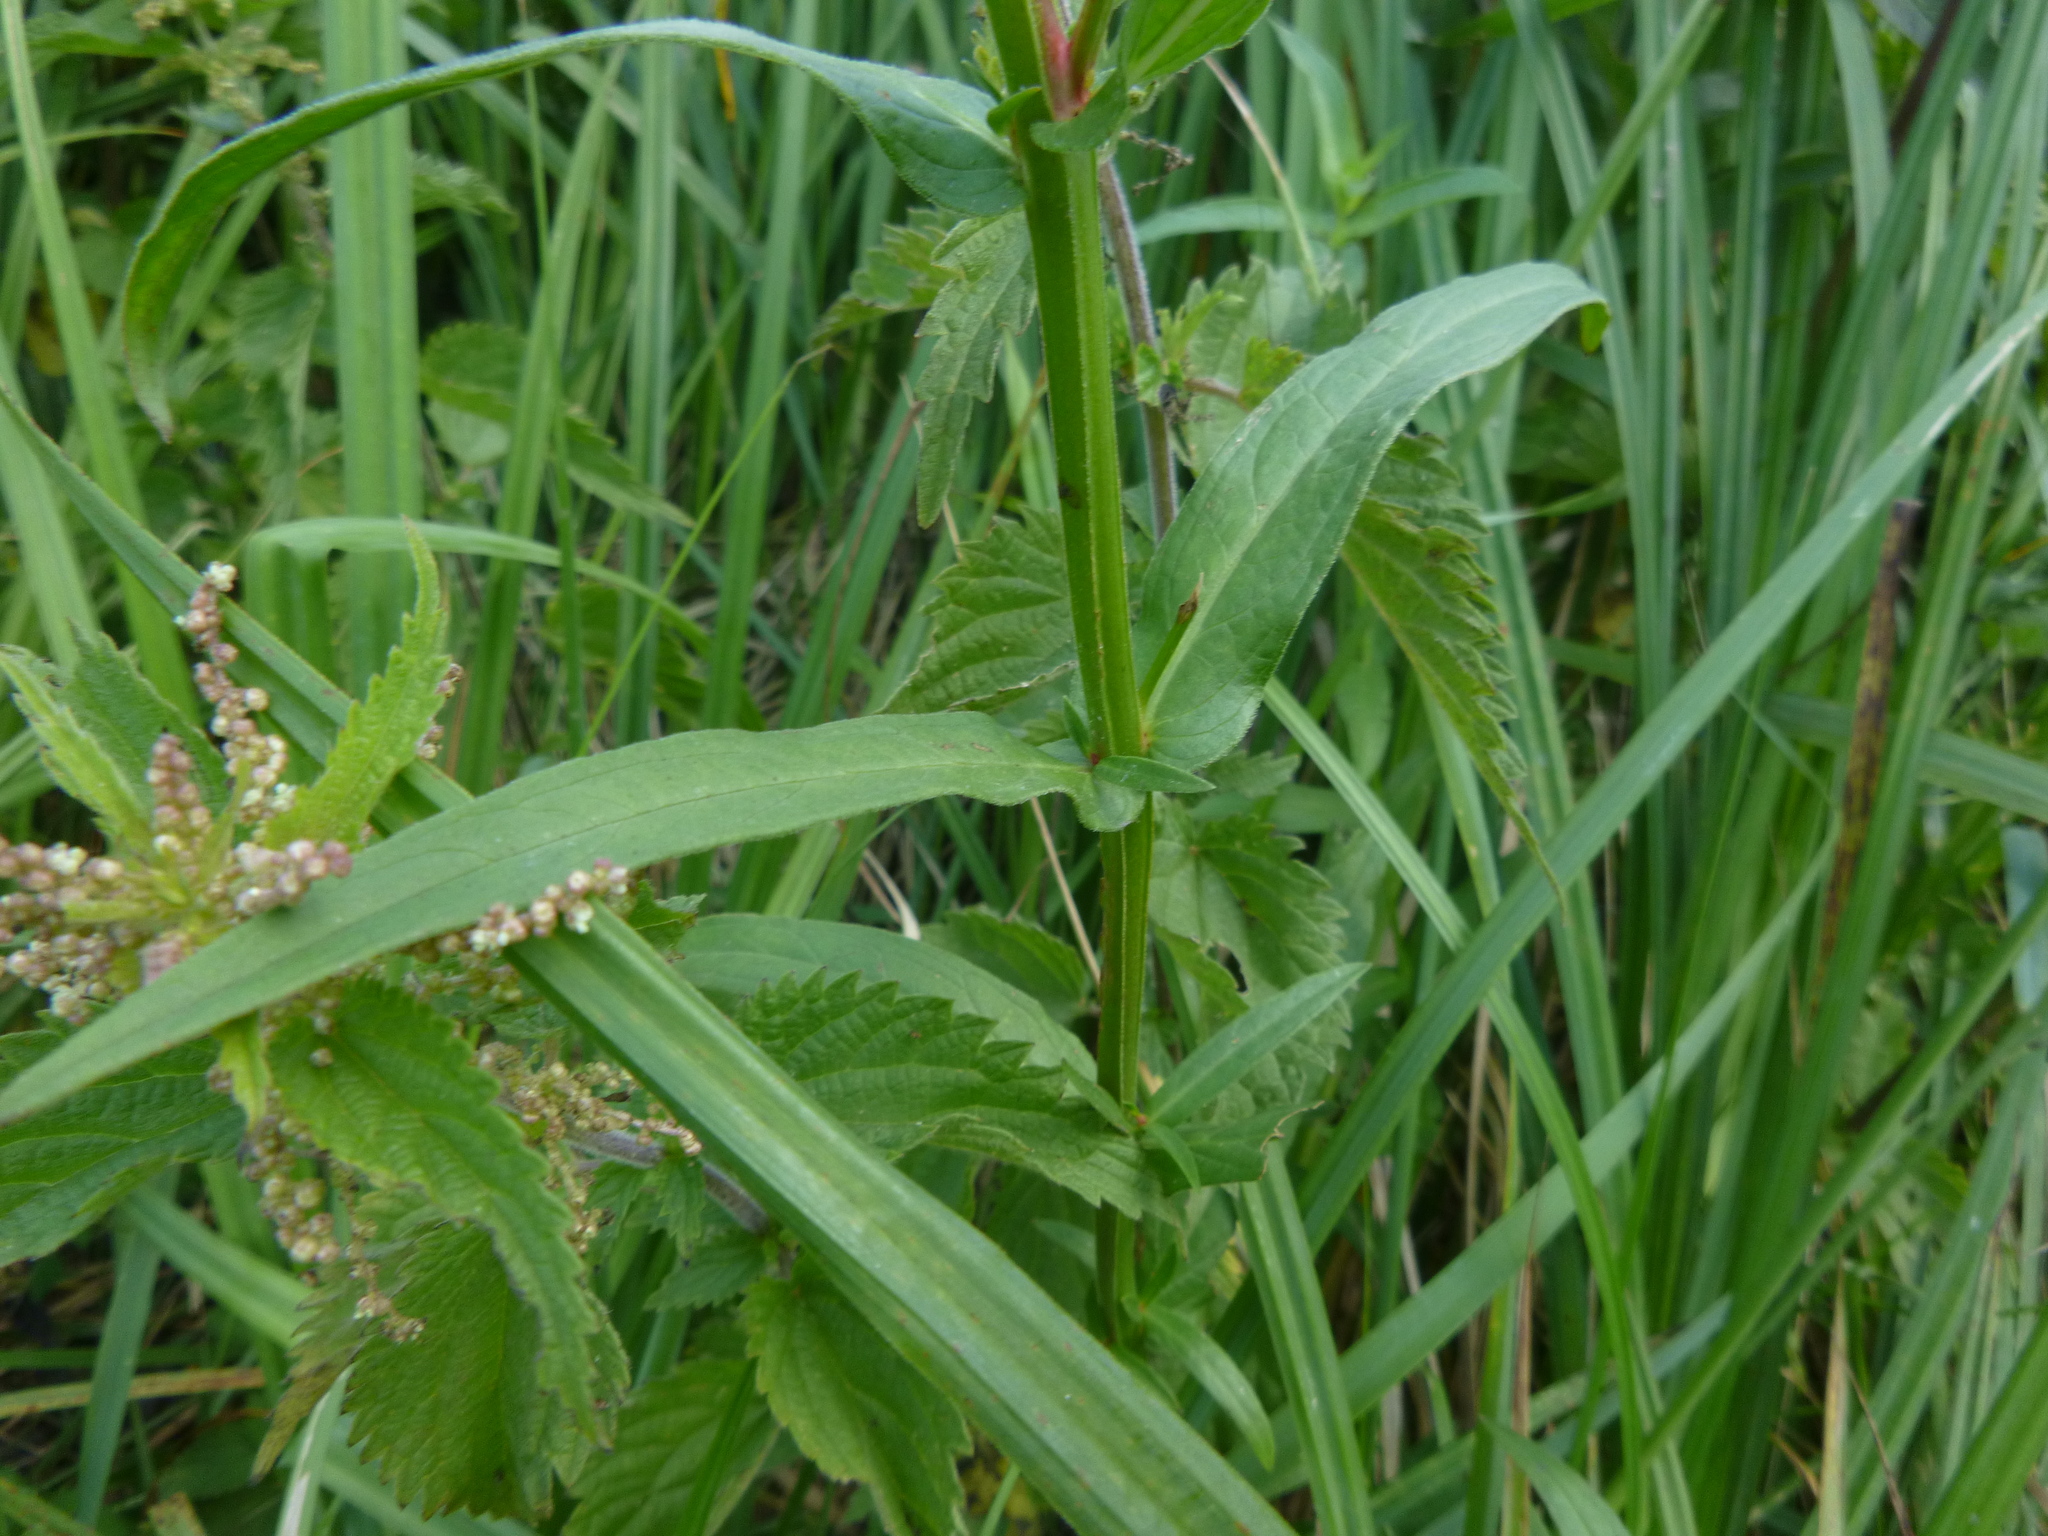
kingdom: Plantae
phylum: Tracheophyta
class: Magnoliopsida
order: Myrtales
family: Lythraceae
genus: Lythrum
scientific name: Lythrum salicaria
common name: Purple loosestrife
